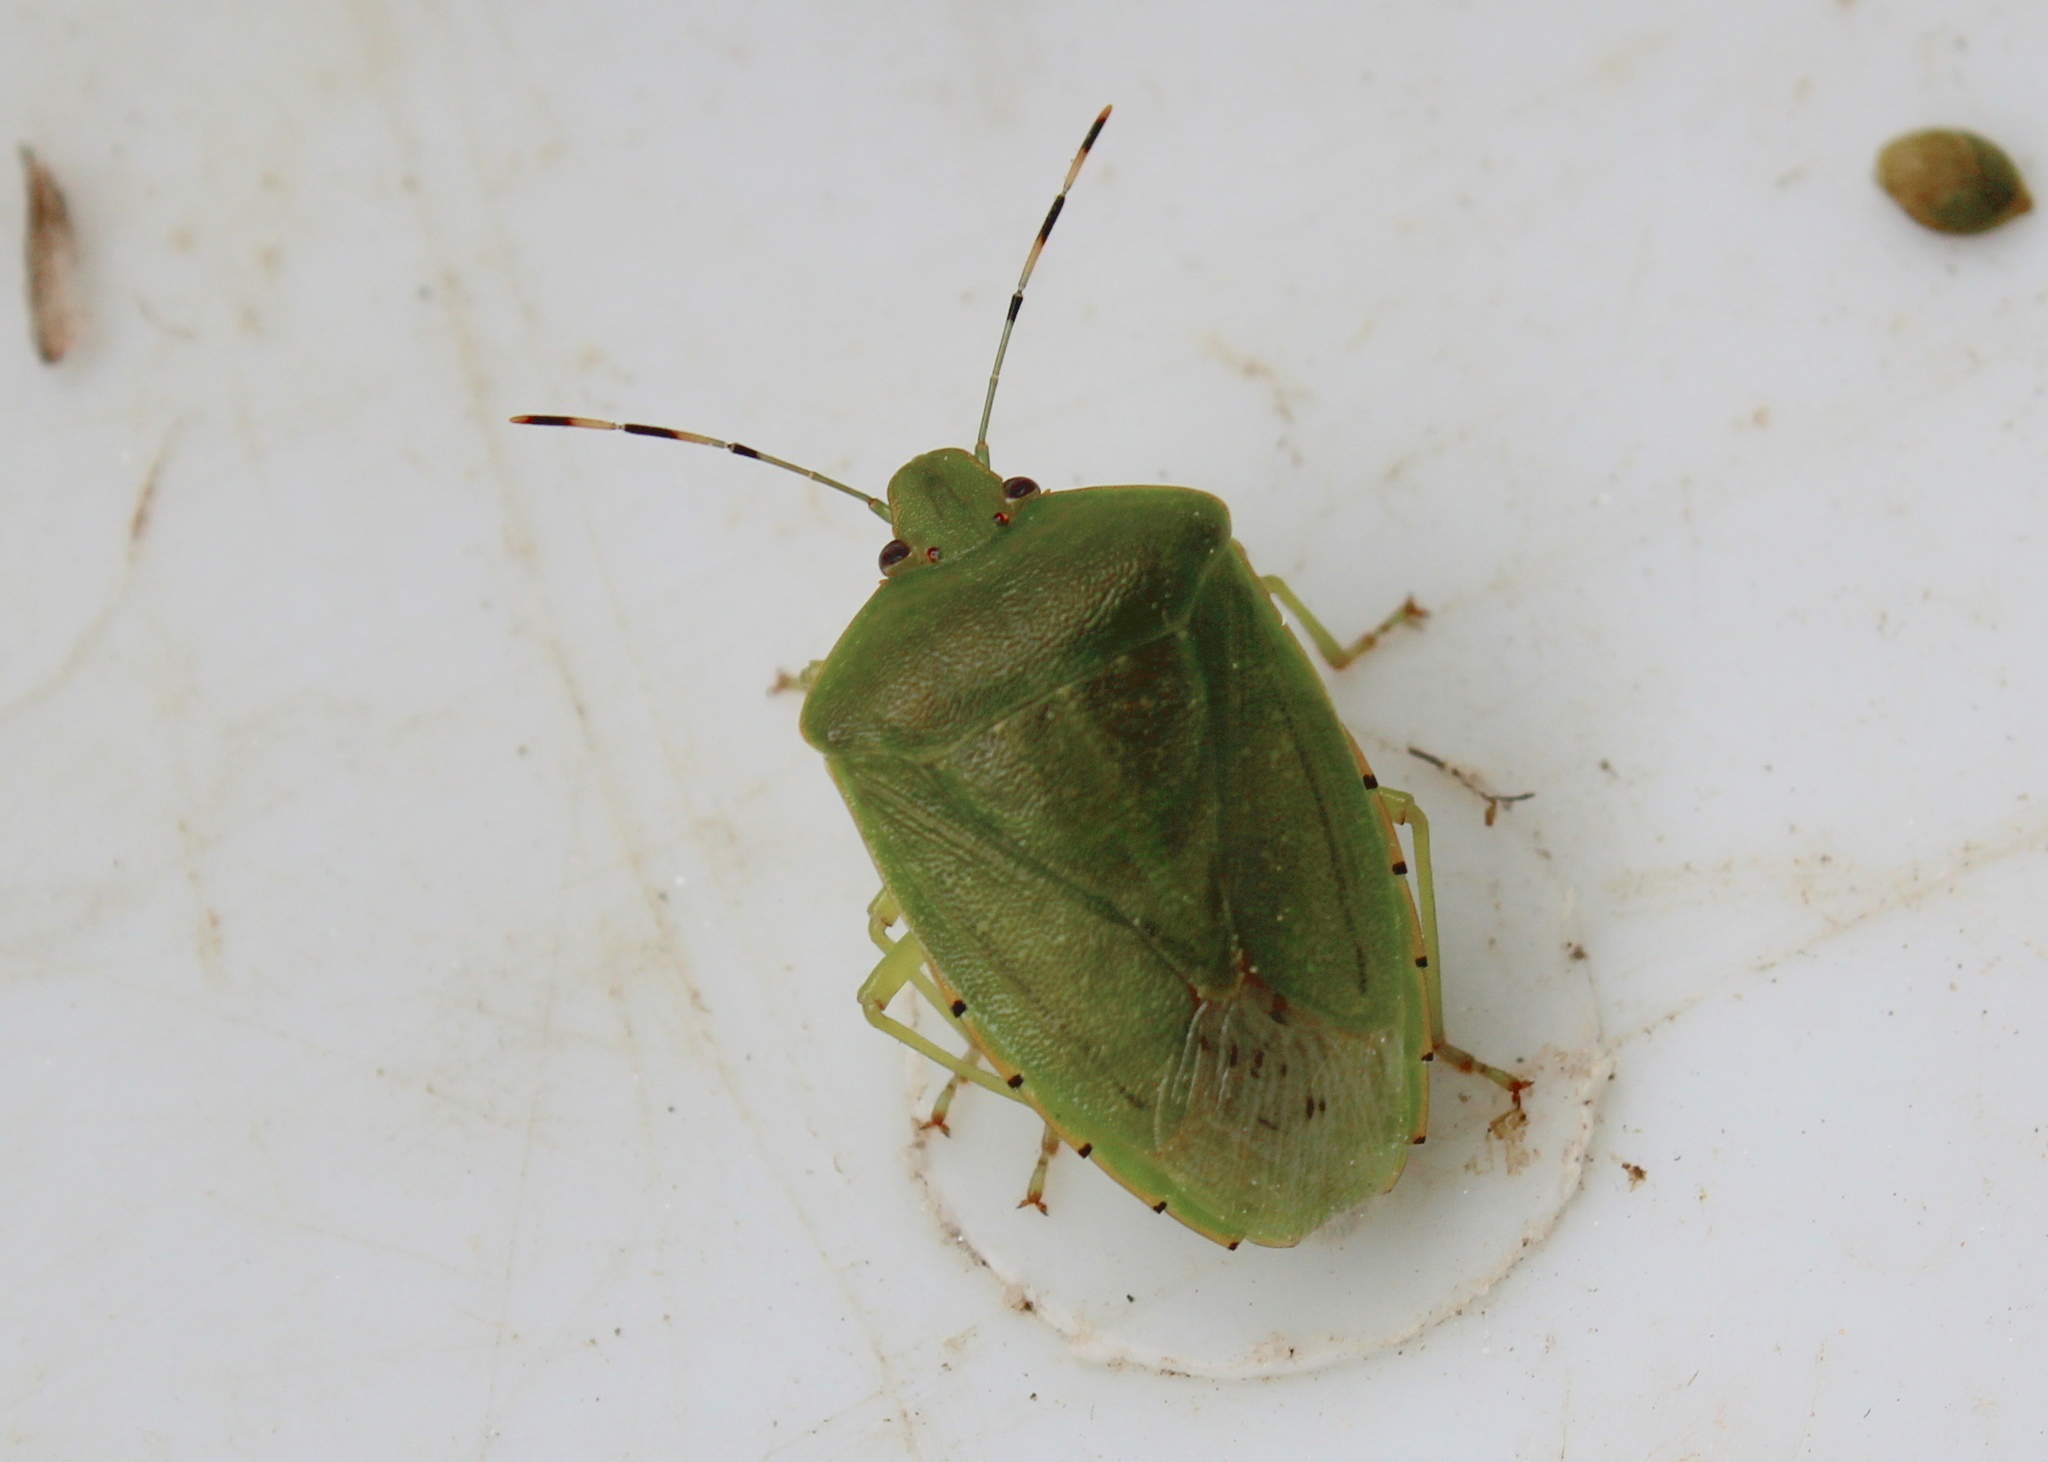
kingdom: Animalia
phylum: Arthropoda
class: Insecta
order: Hemiptera
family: Pentatomidae
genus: Chinavia
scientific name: Chinavia hilaris
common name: Green stink bug
